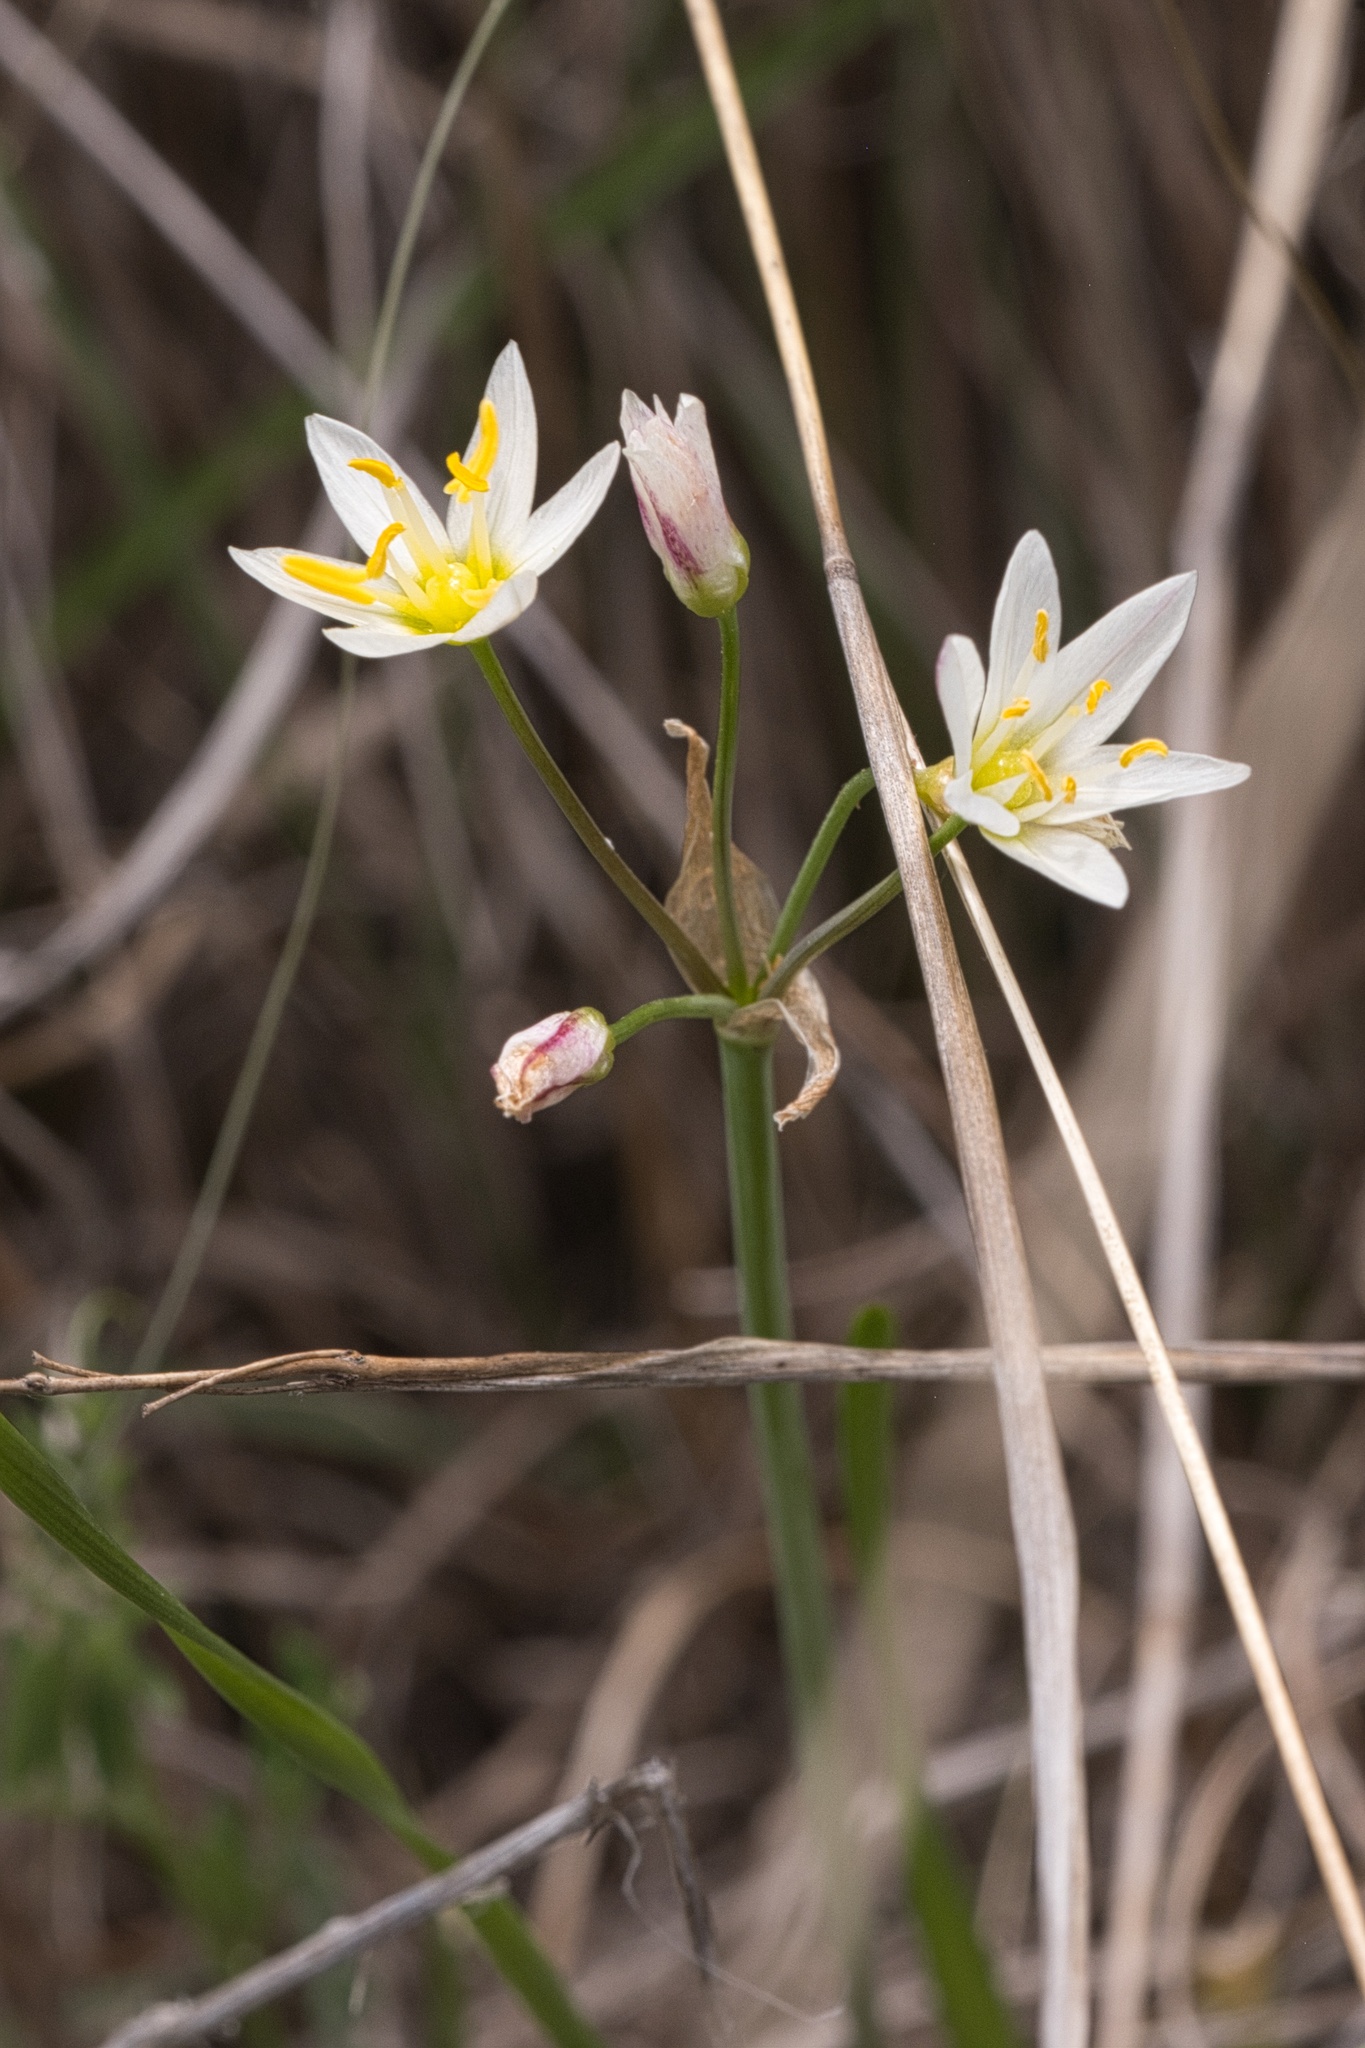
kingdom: Plantae
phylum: Tracheophyta
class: Liliopsida
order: Asparagales
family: Amaryllidaceae
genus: Nothoscordum
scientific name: Nothoscordum bivalve
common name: Crow-poison
